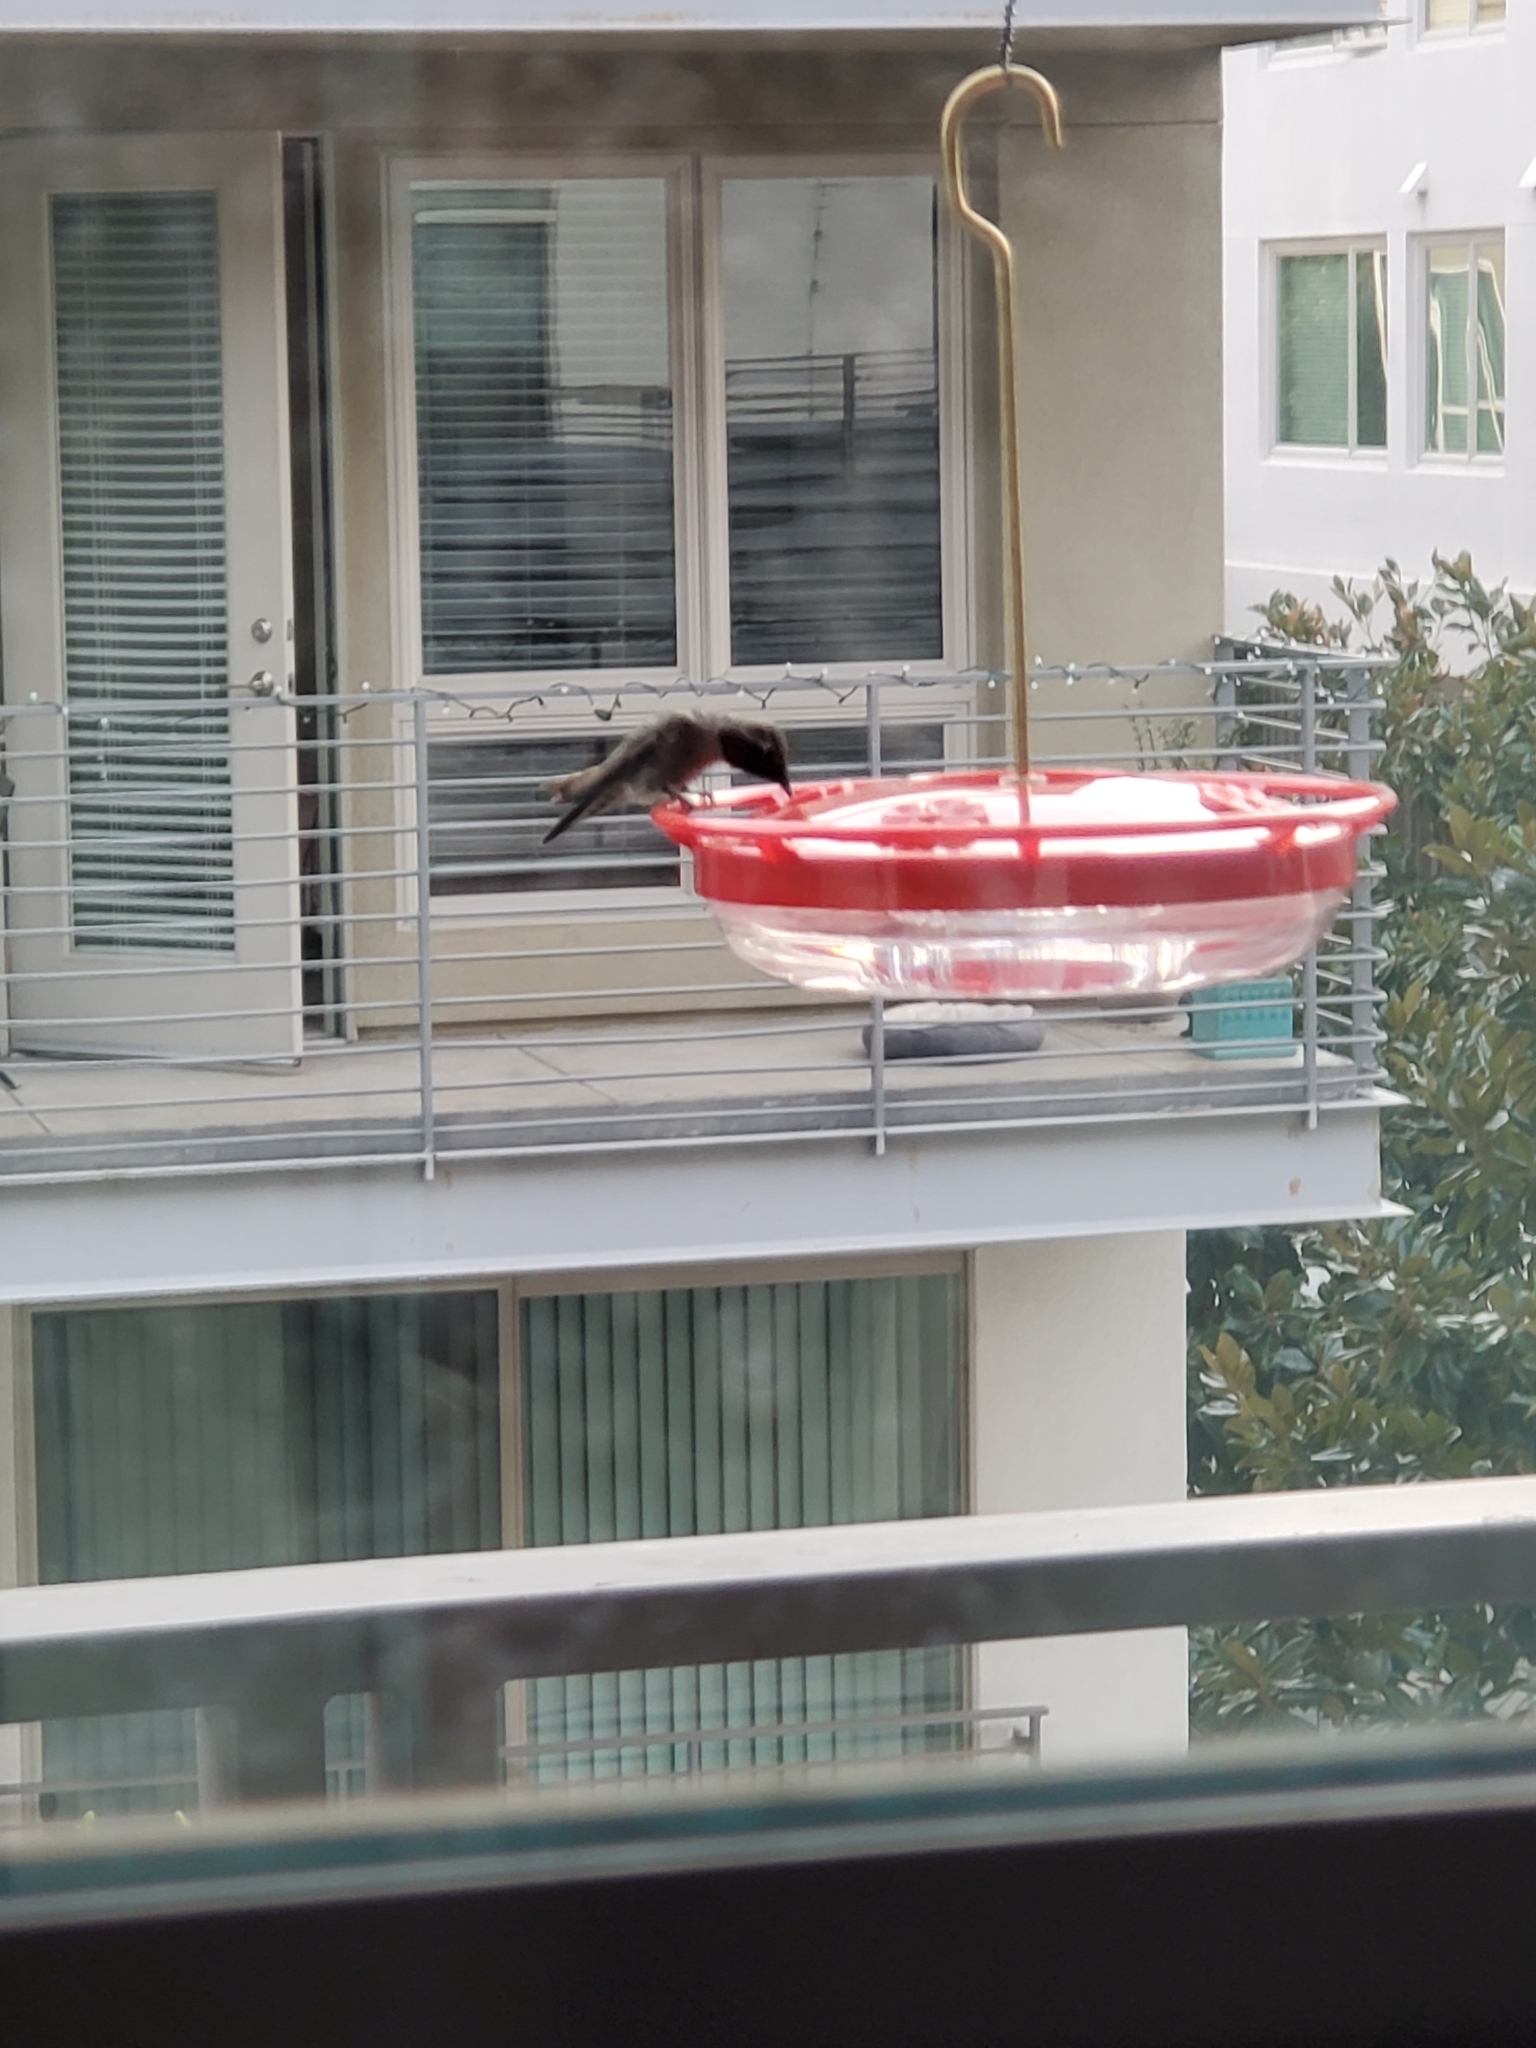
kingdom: Animalia
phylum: Chordata
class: Aves
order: Apodiformes
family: Trochilidae
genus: Calypte
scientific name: Calypte anna
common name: Anna's hummingbird
